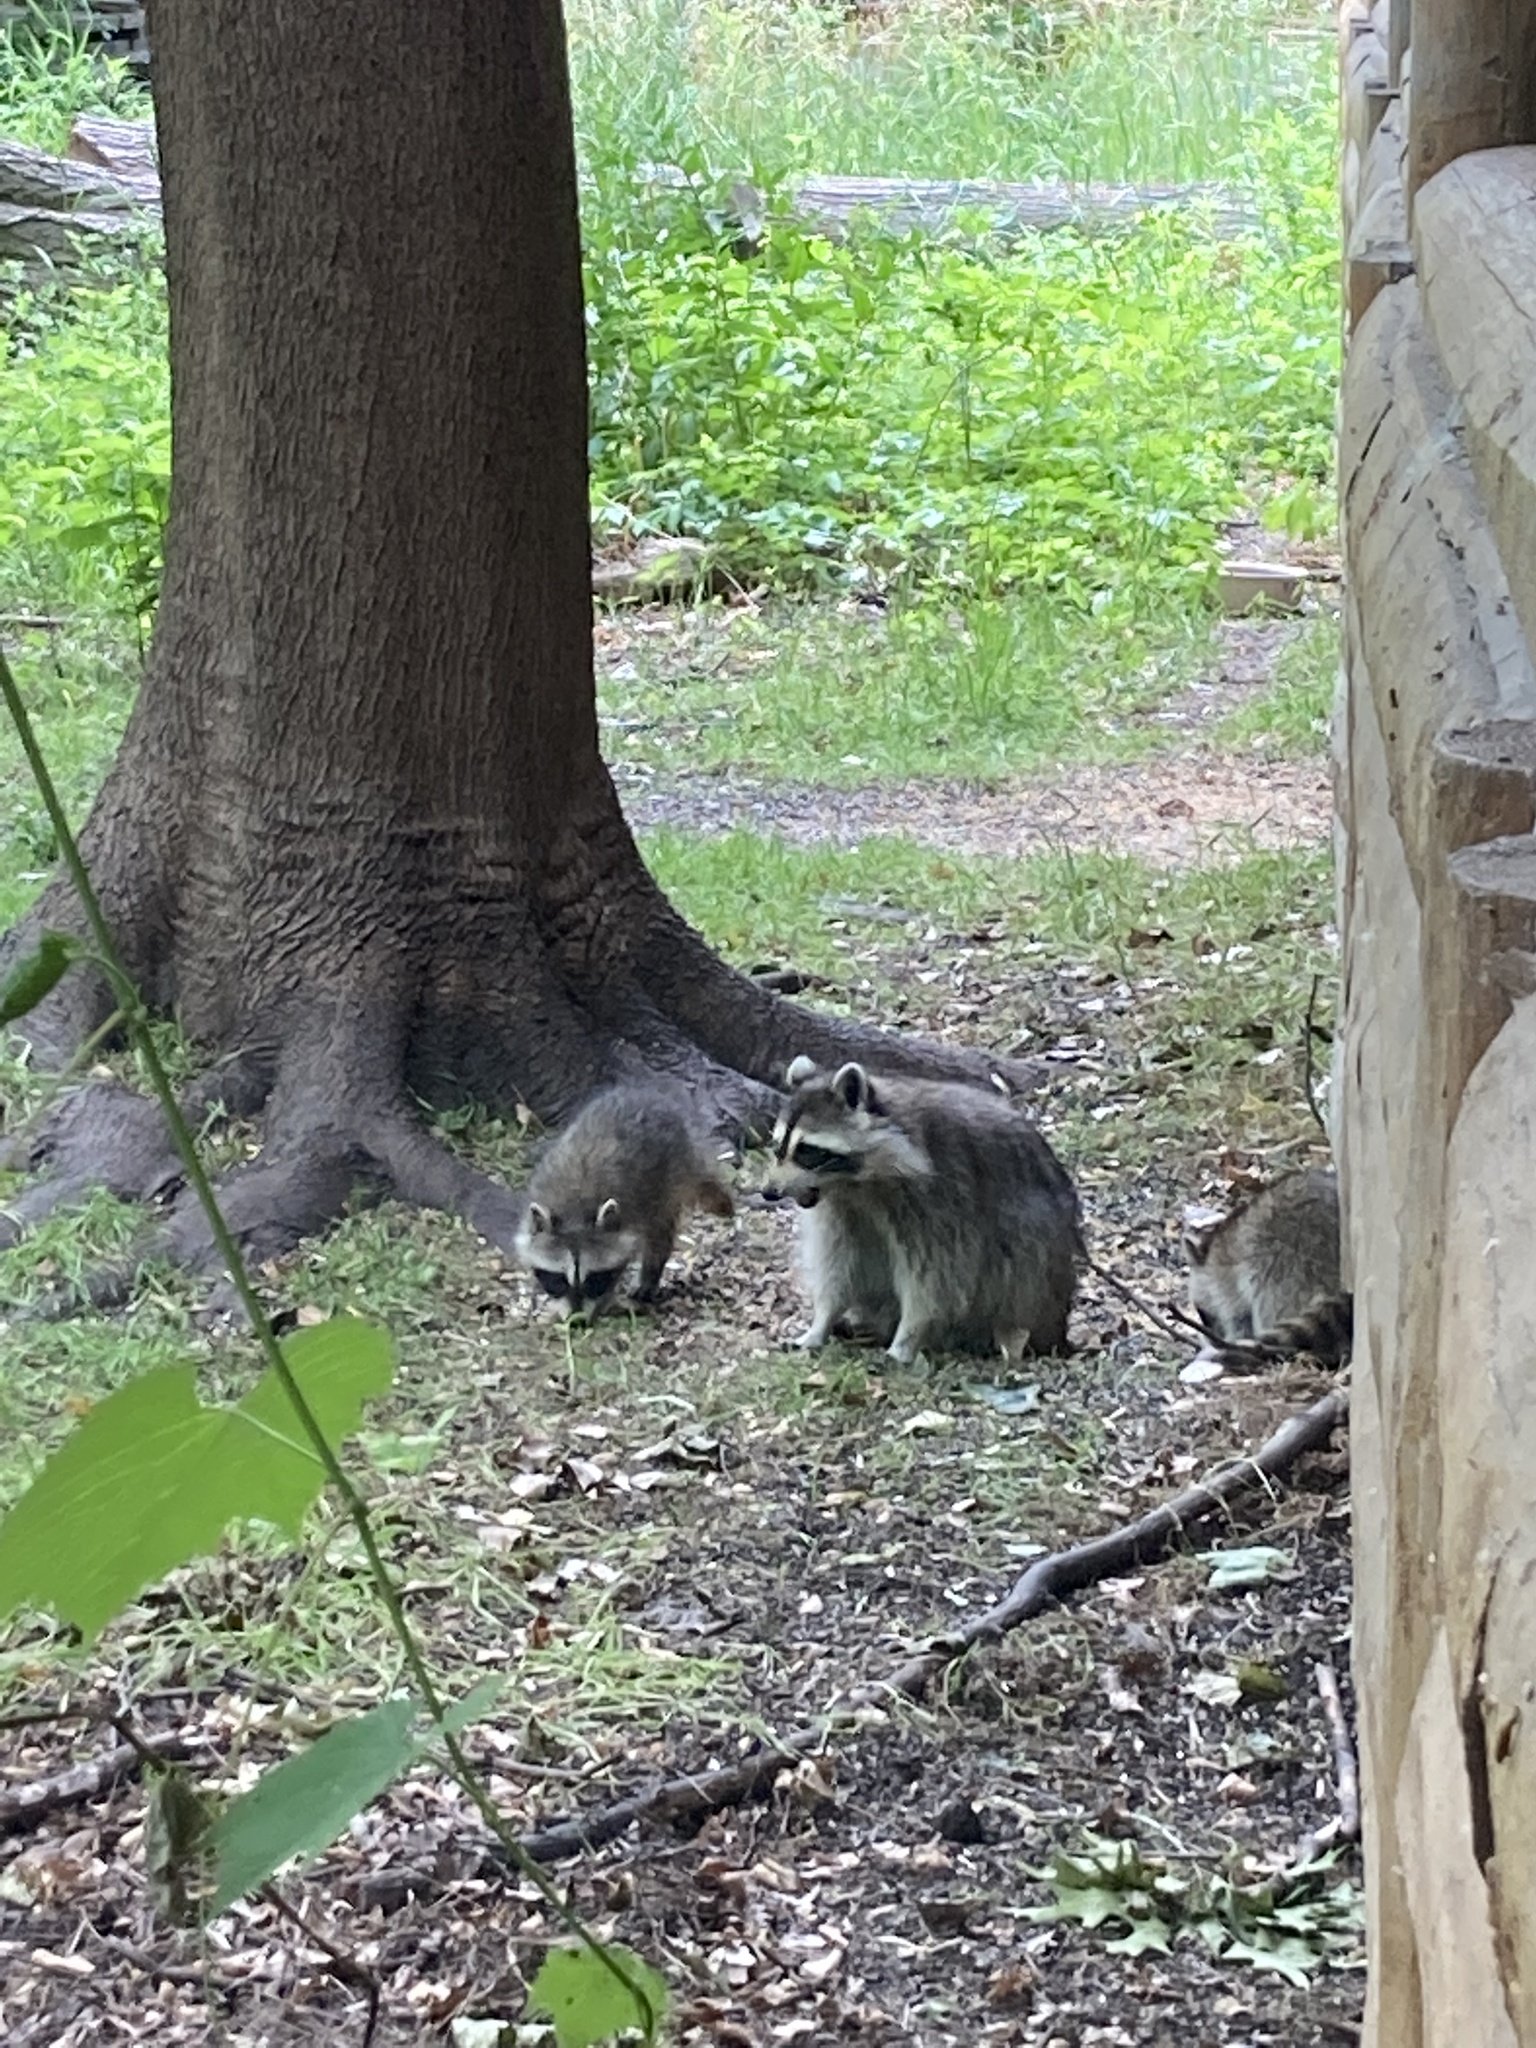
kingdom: Animalia
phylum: Chordata
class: Mammalia
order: Carnivora
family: Procyonidae
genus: Procyon
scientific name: Procyon lotor
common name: Raccoon
